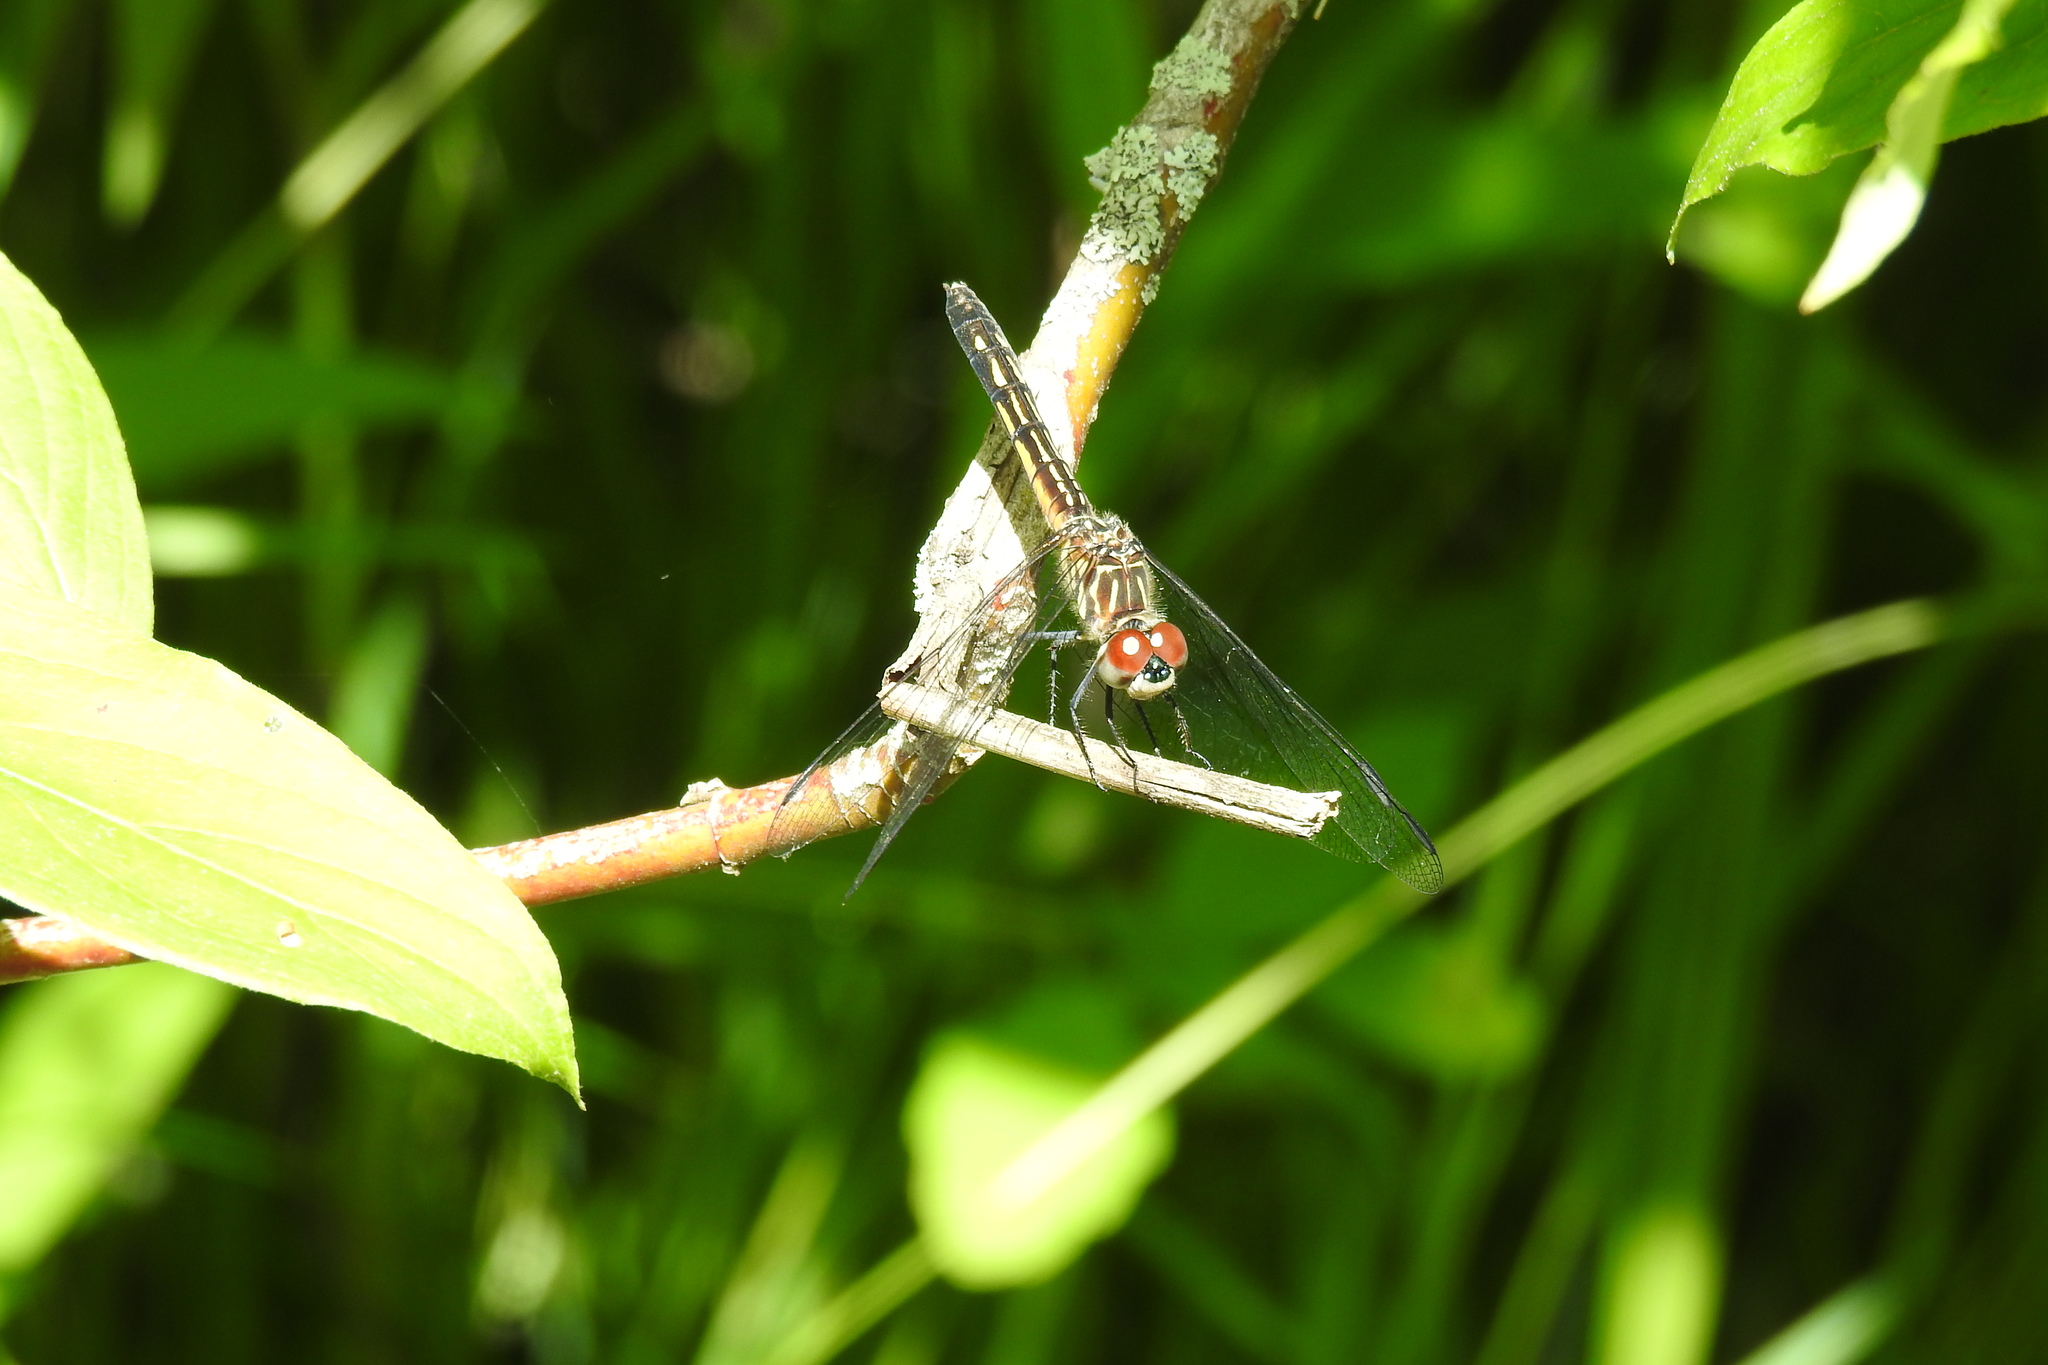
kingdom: Animalia
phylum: Arthropoda
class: Insecta
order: Odonata
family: Libellulidae
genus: Pachydiplax
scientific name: Pachydiplax longipennis
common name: Blue dasher
